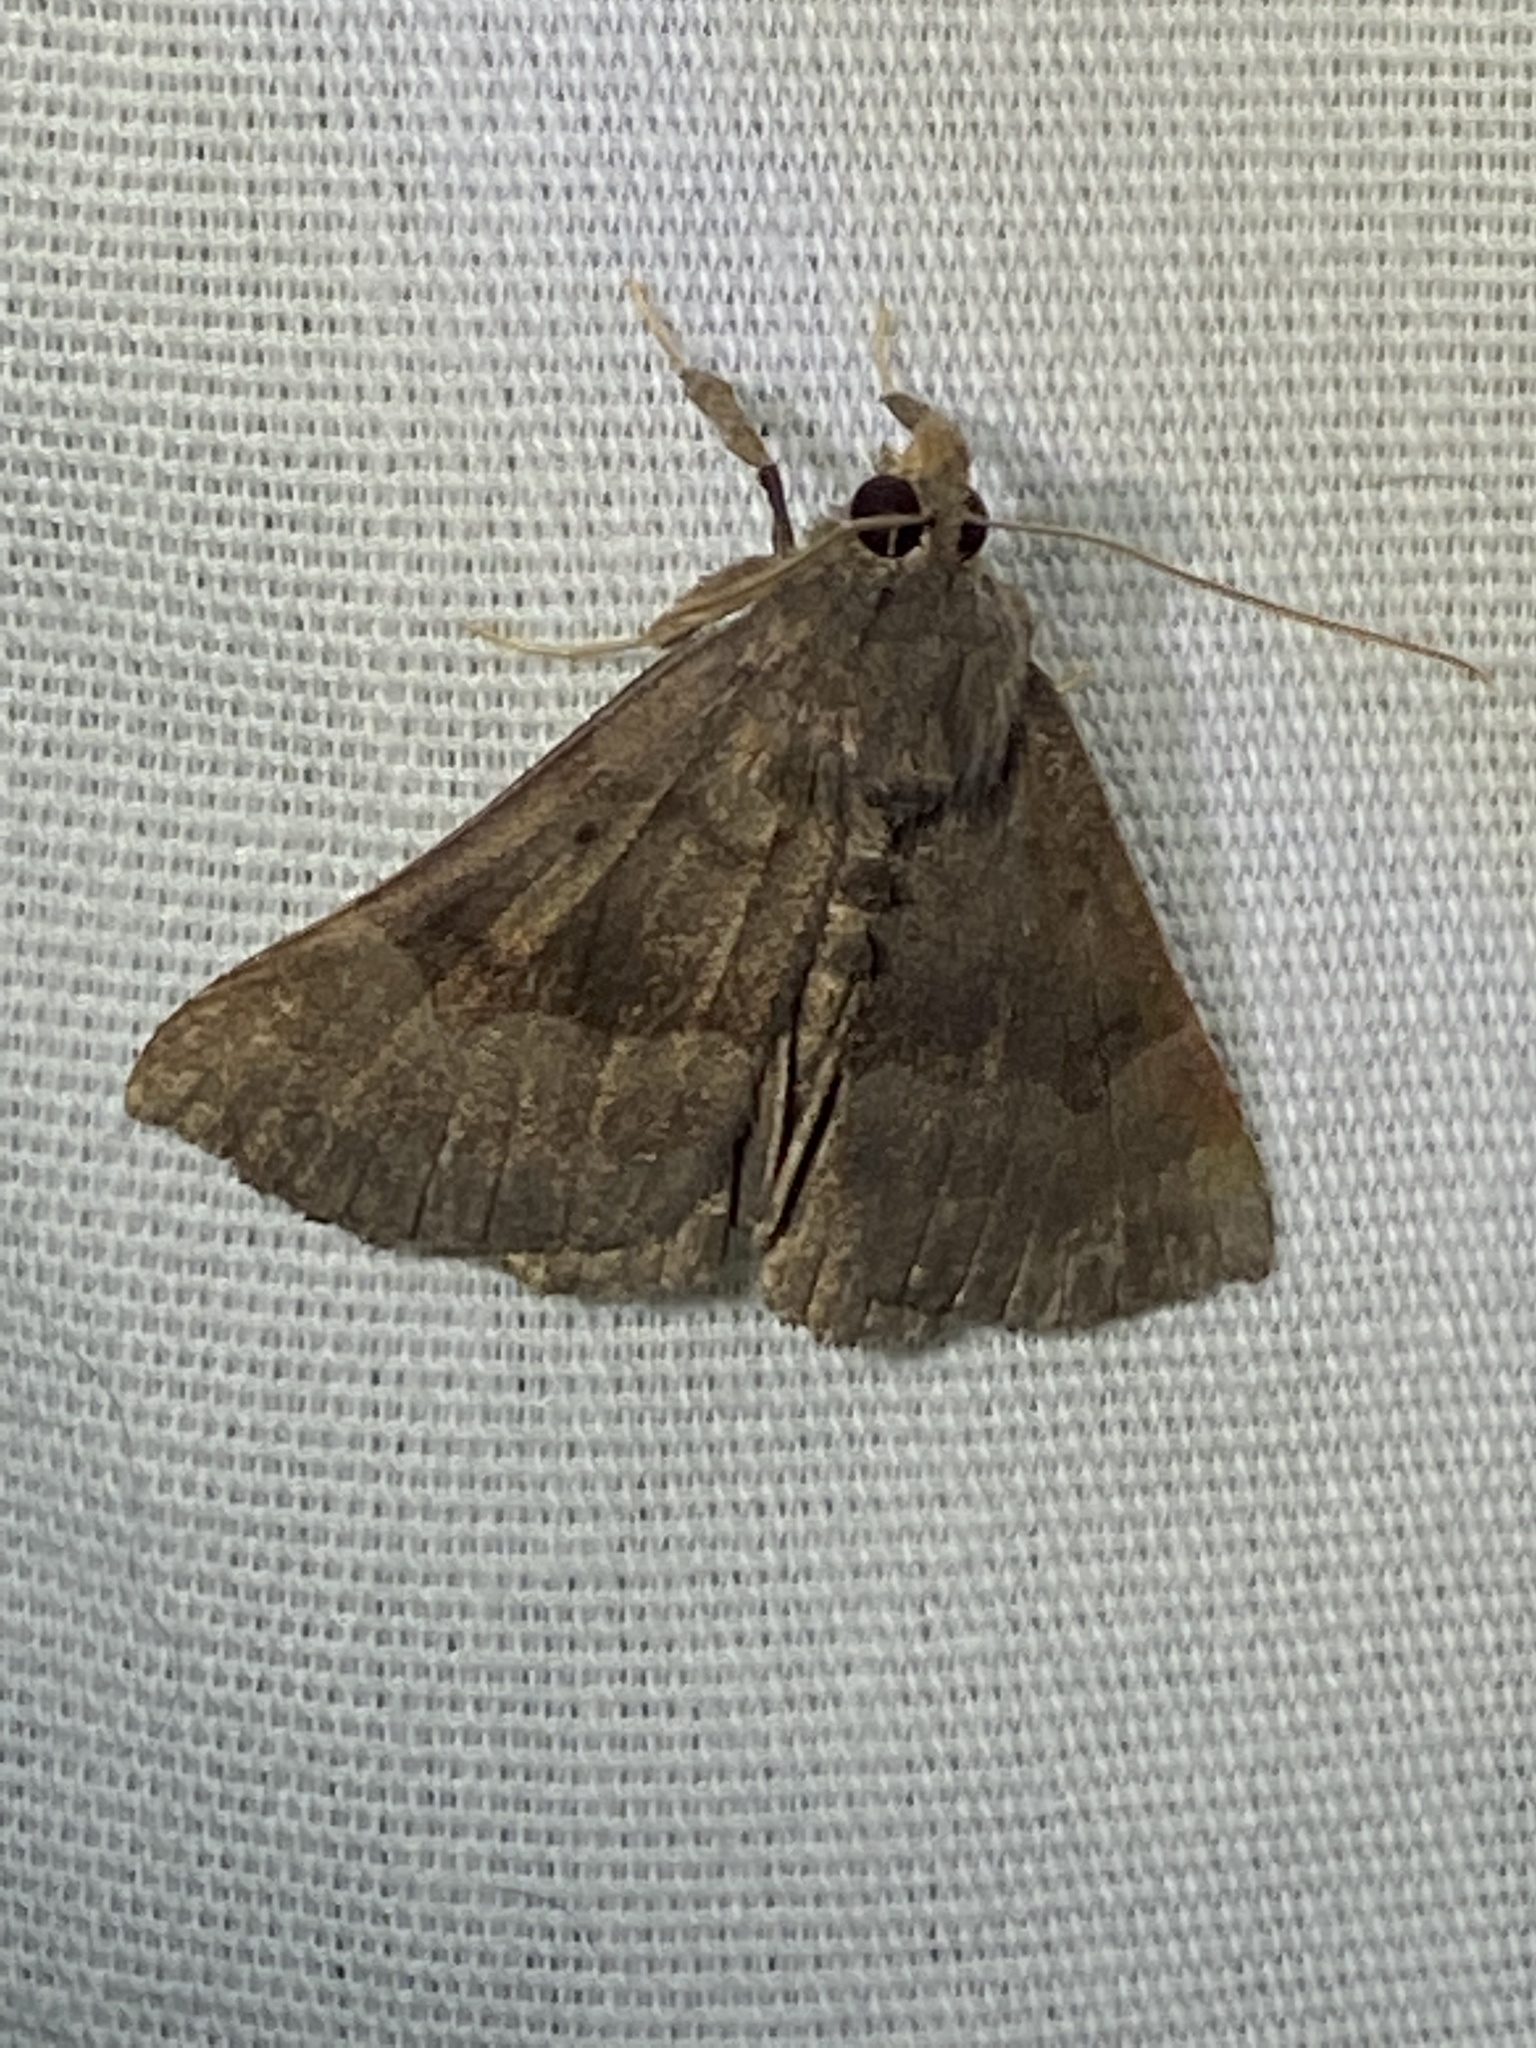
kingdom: Animalia
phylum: Arthropoda
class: Insecta
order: Lepidoptera
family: Erebidae
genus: Hypena
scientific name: Hypena madefactalis
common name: Gray-edged snout
